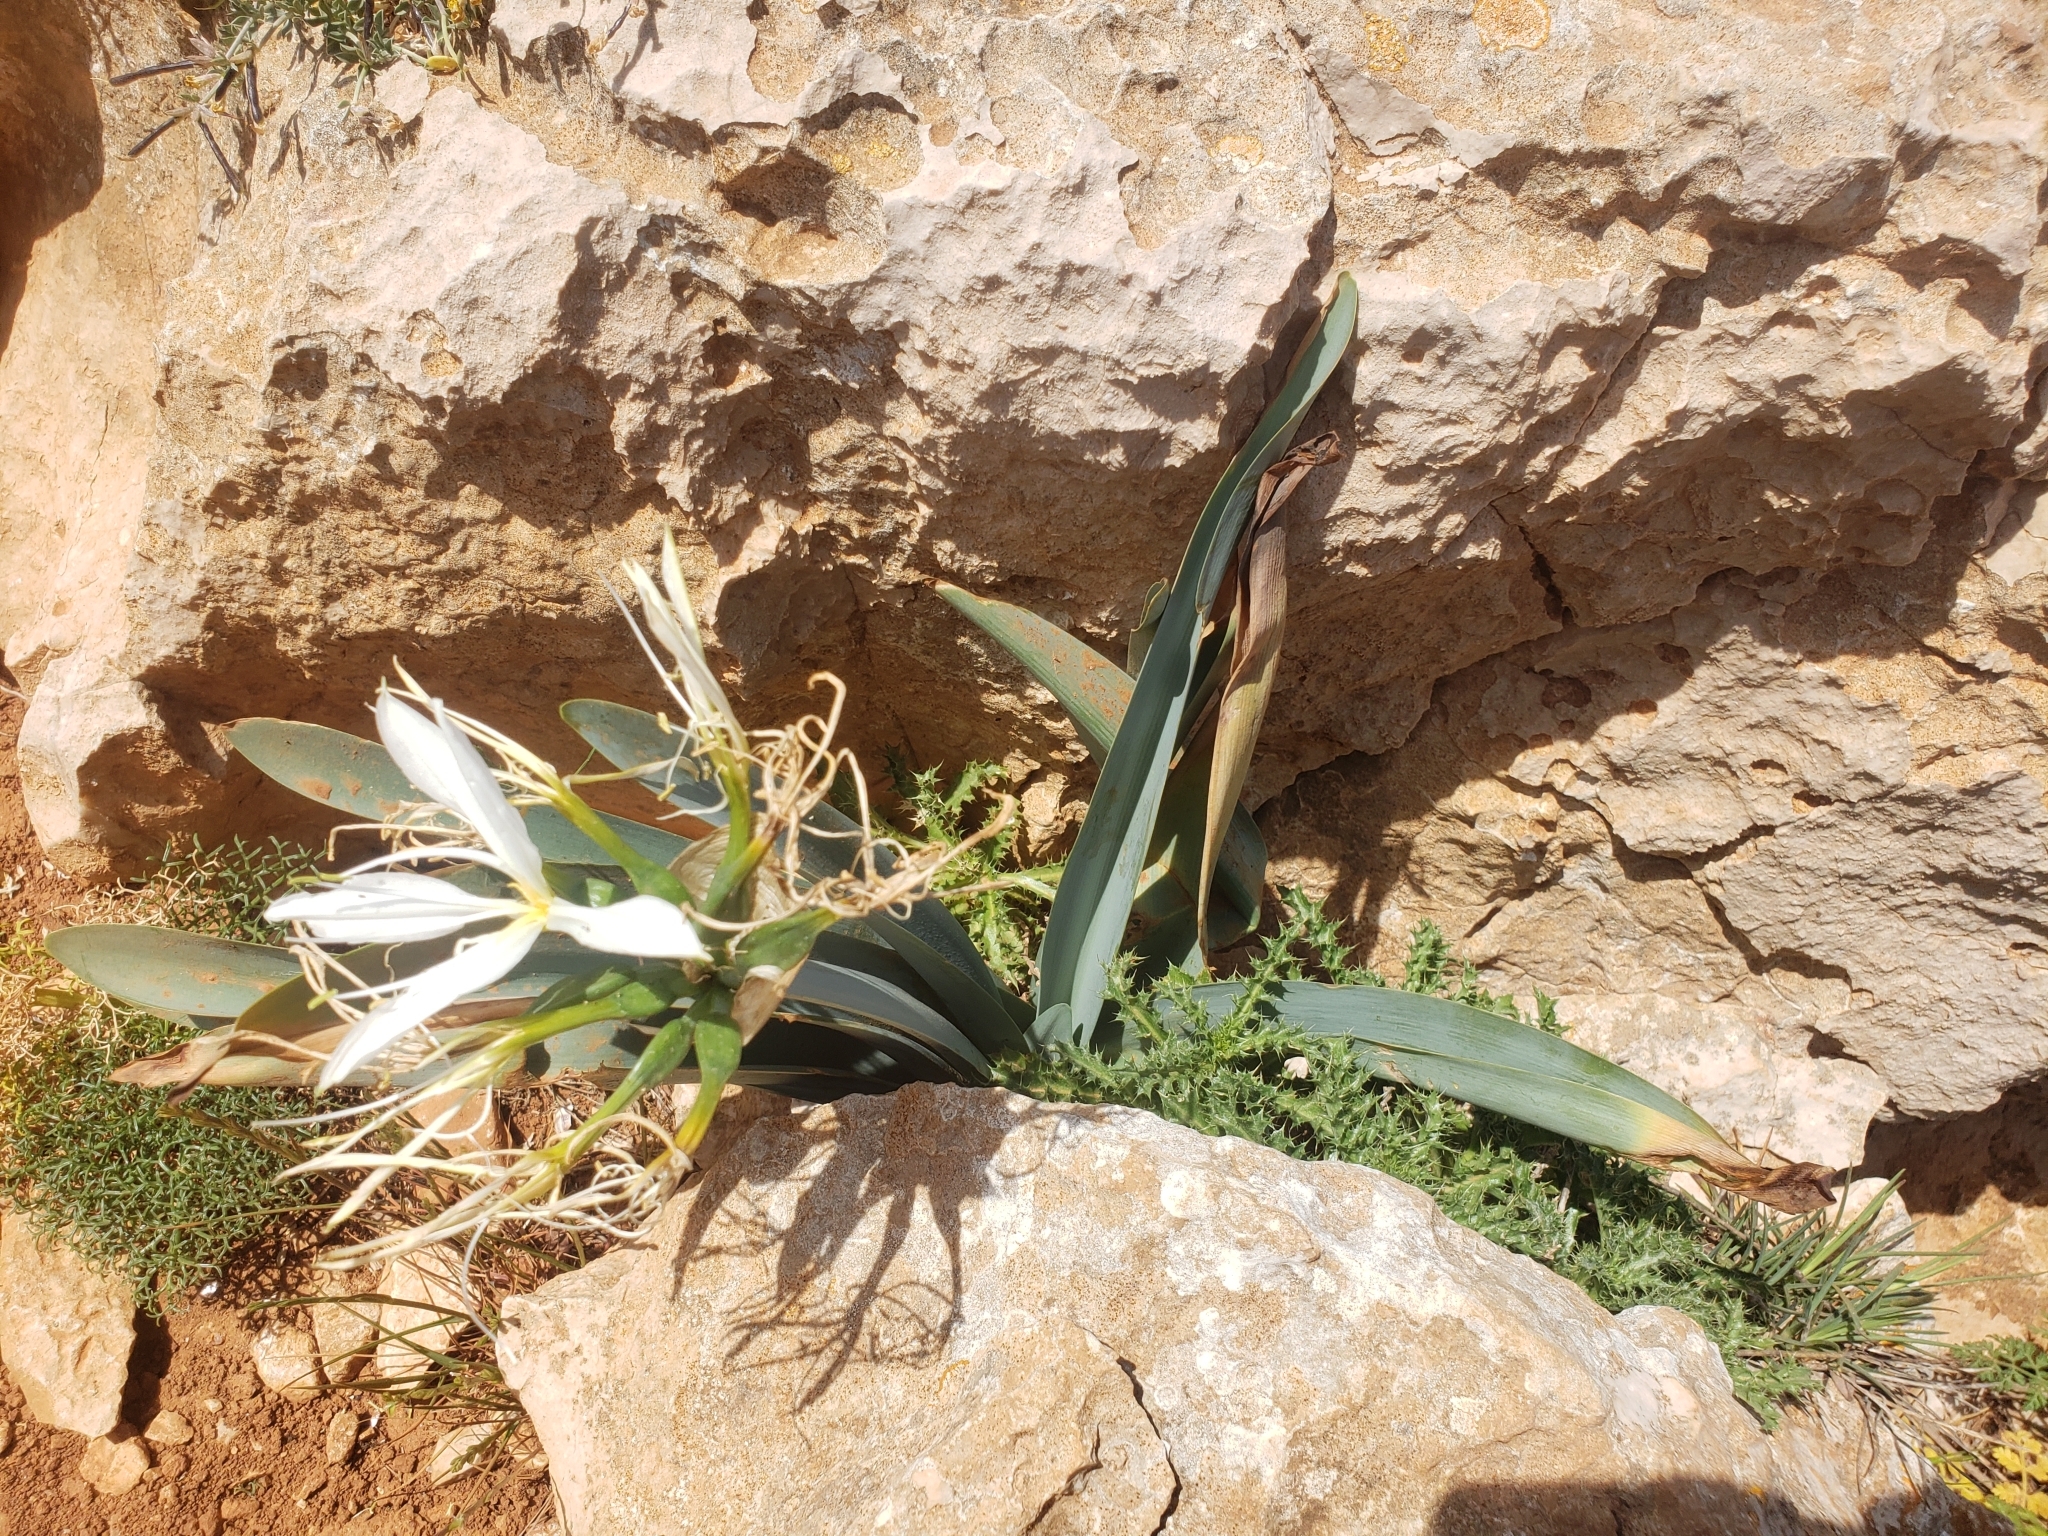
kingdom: Plantae
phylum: Tracheophyta
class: Liliopsida
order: Asparagales
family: Amaryllidaceae
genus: Pancratium
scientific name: Pancratium illyricum
